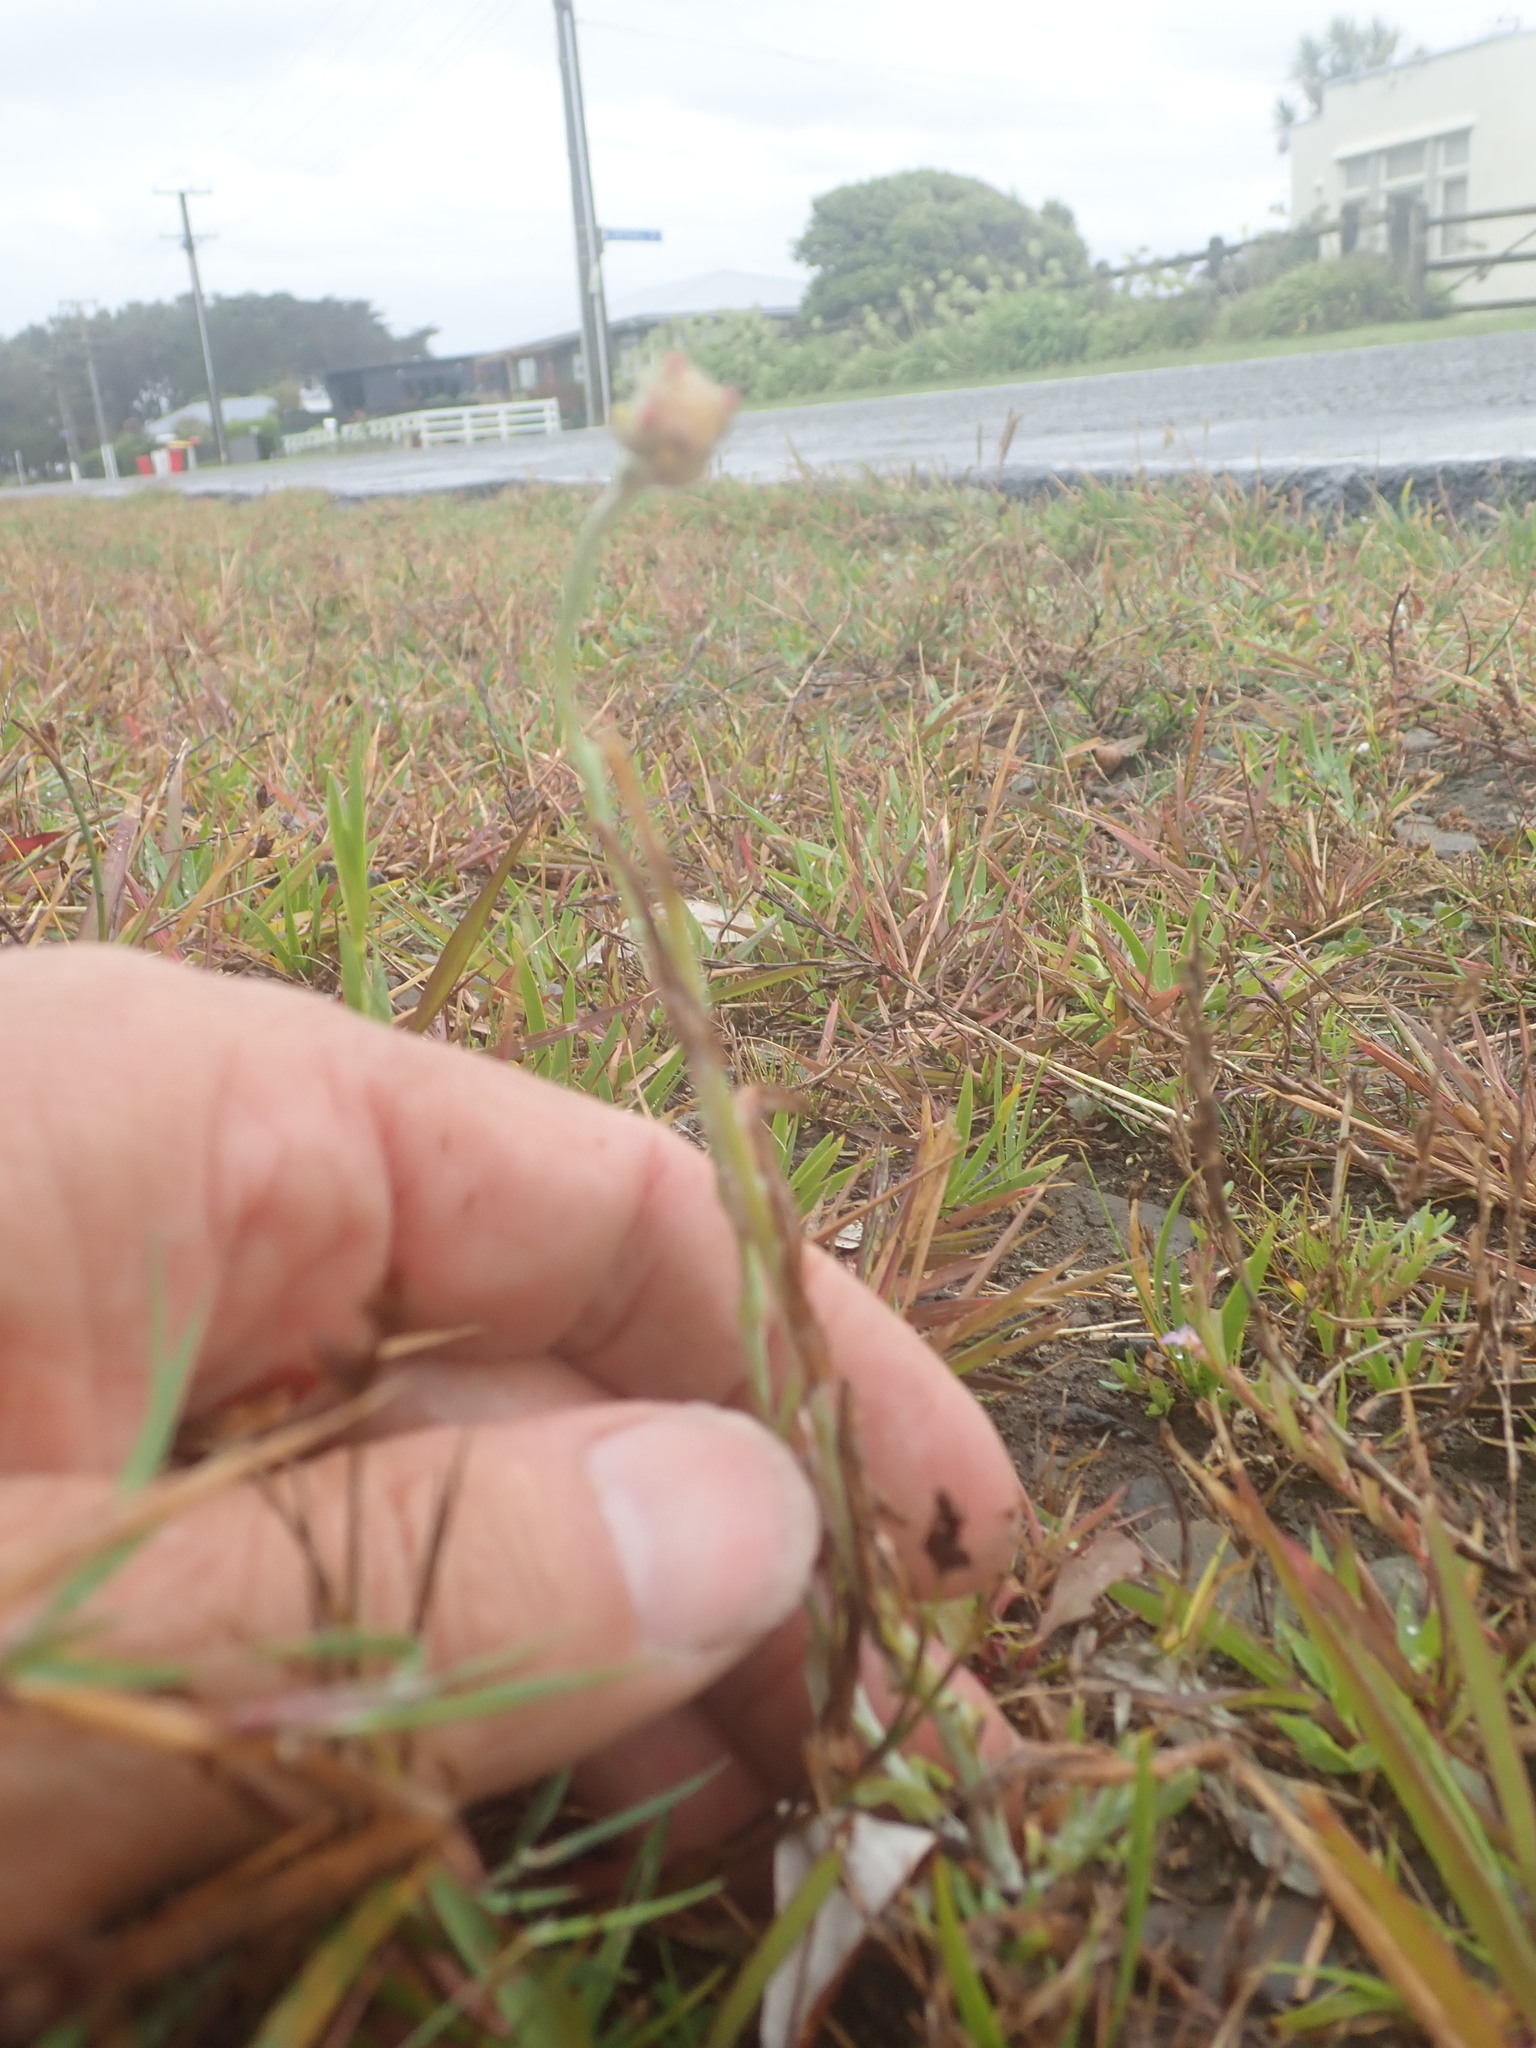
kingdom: Plantae
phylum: Tracheophyta
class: Magnoliopsida
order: Asterales
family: Asteraceae
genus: Helichrysum
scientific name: Helichrysum luteoalbum
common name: Daisy
